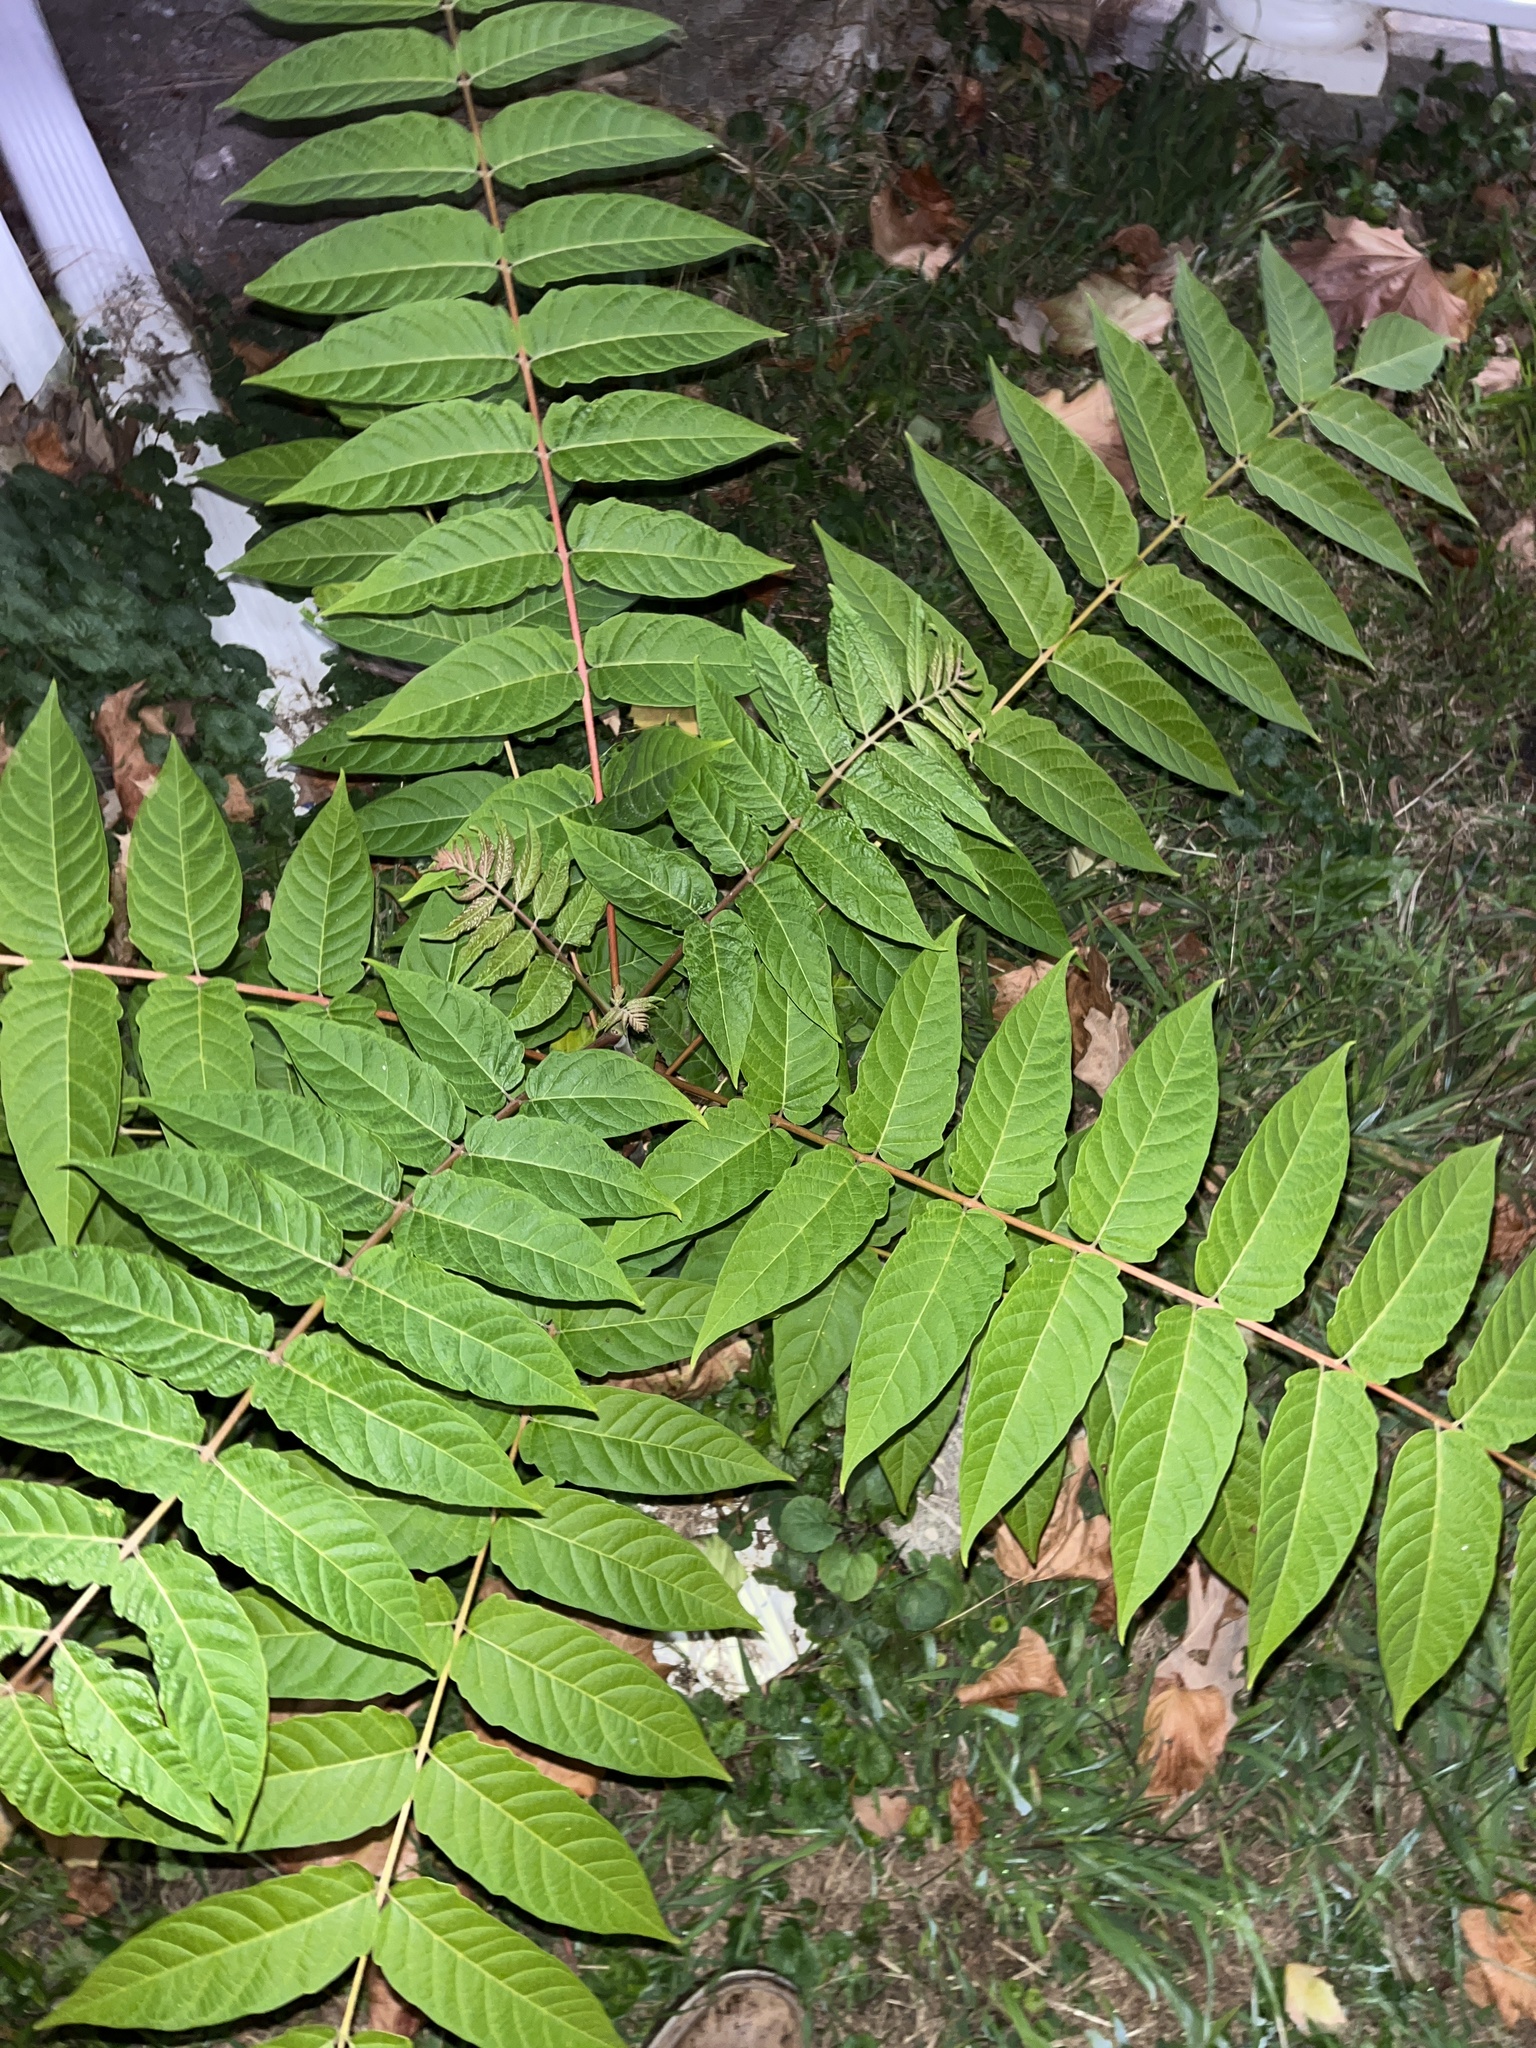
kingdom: Plantae
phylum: Tracheophyta
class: Magnoliopsida
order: Sapindales
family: Simaroubaceae
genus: Ailanthus
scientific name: Ailanthus altissima
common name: Tree-of-heaven
